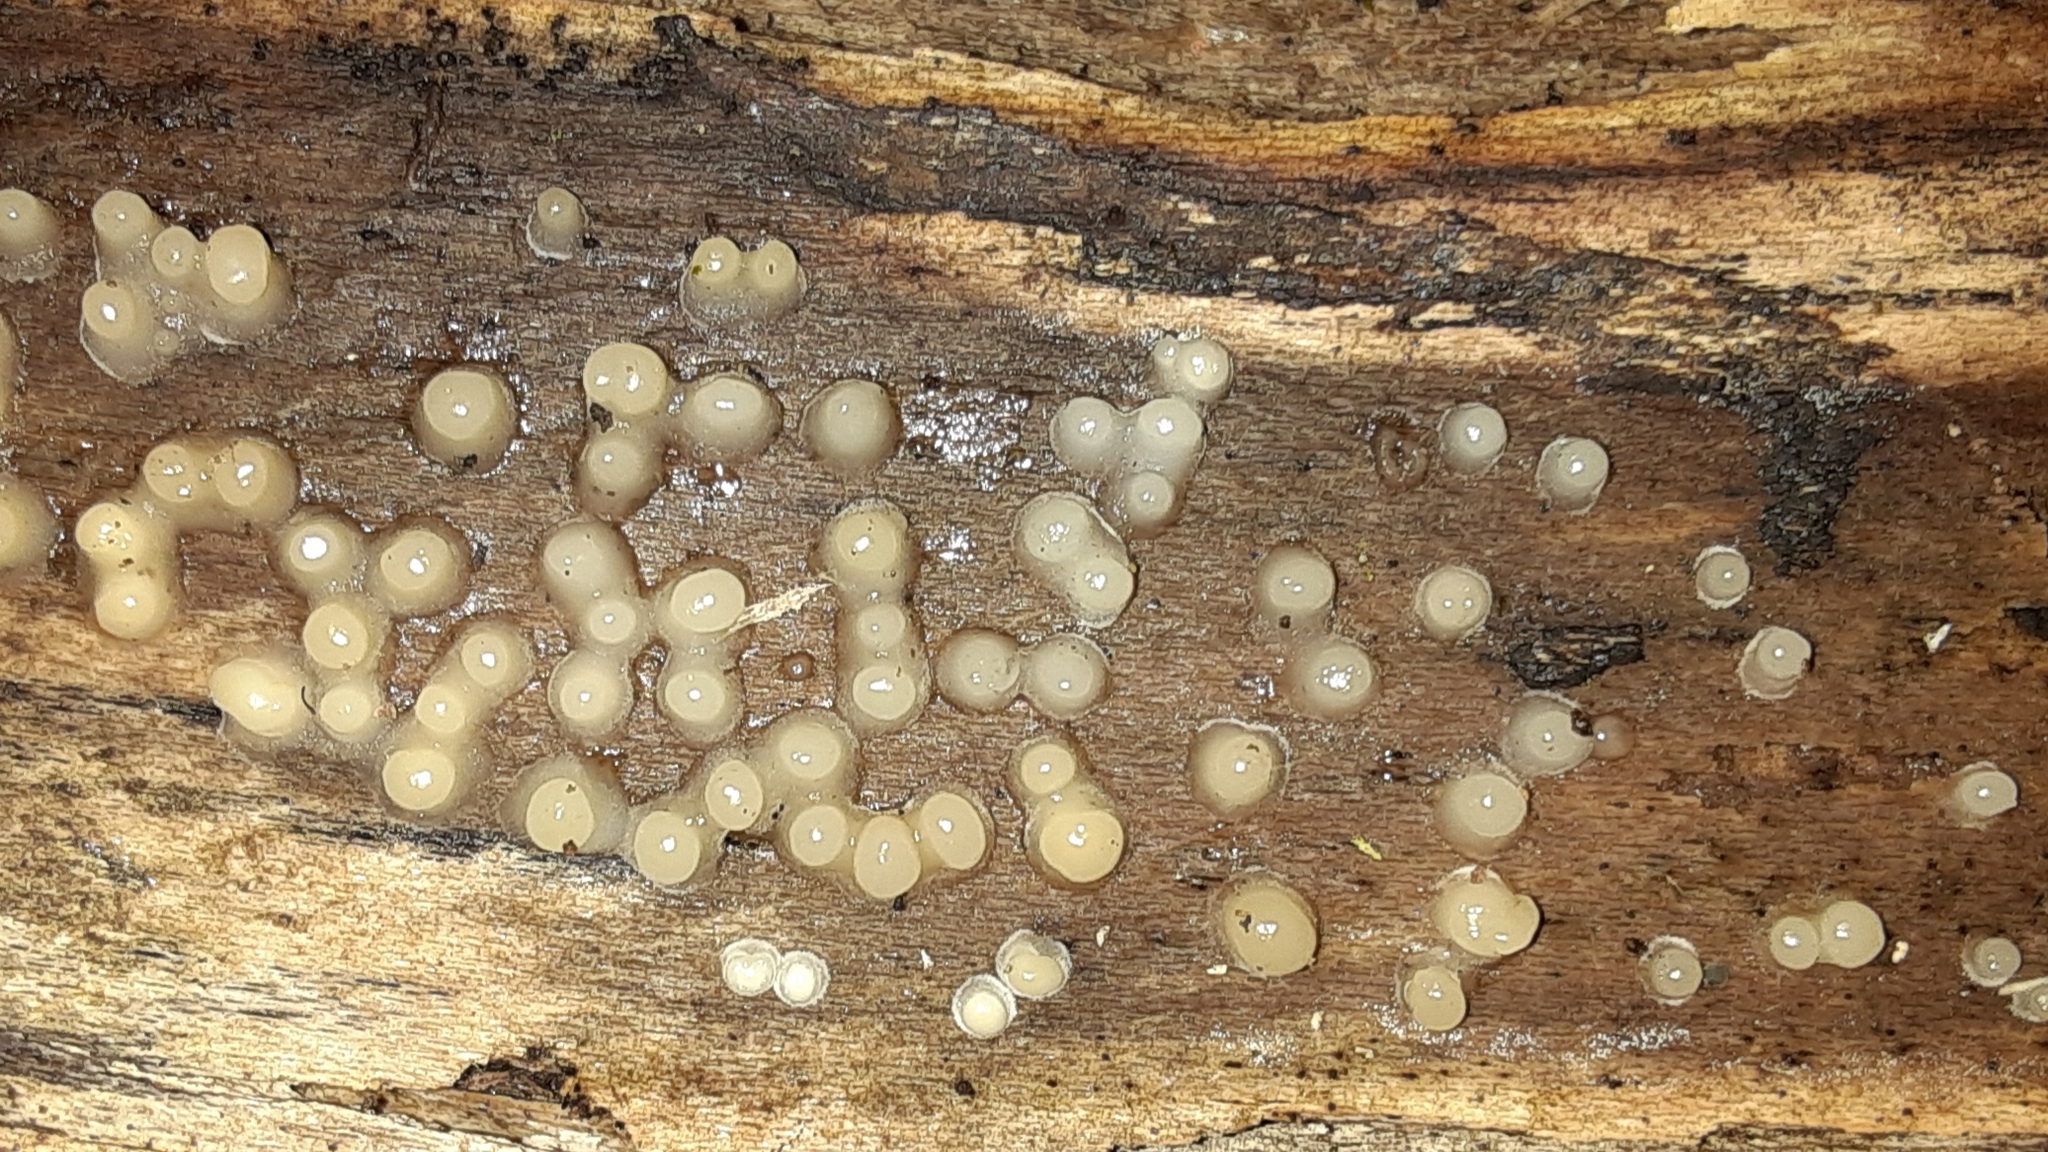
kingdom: Fungi
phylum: Basidiomycota
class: Atractiellomycetes
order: Atractiellales
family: Phleogenaceae
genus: Helicogloea
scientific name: Helicogloea compressa
